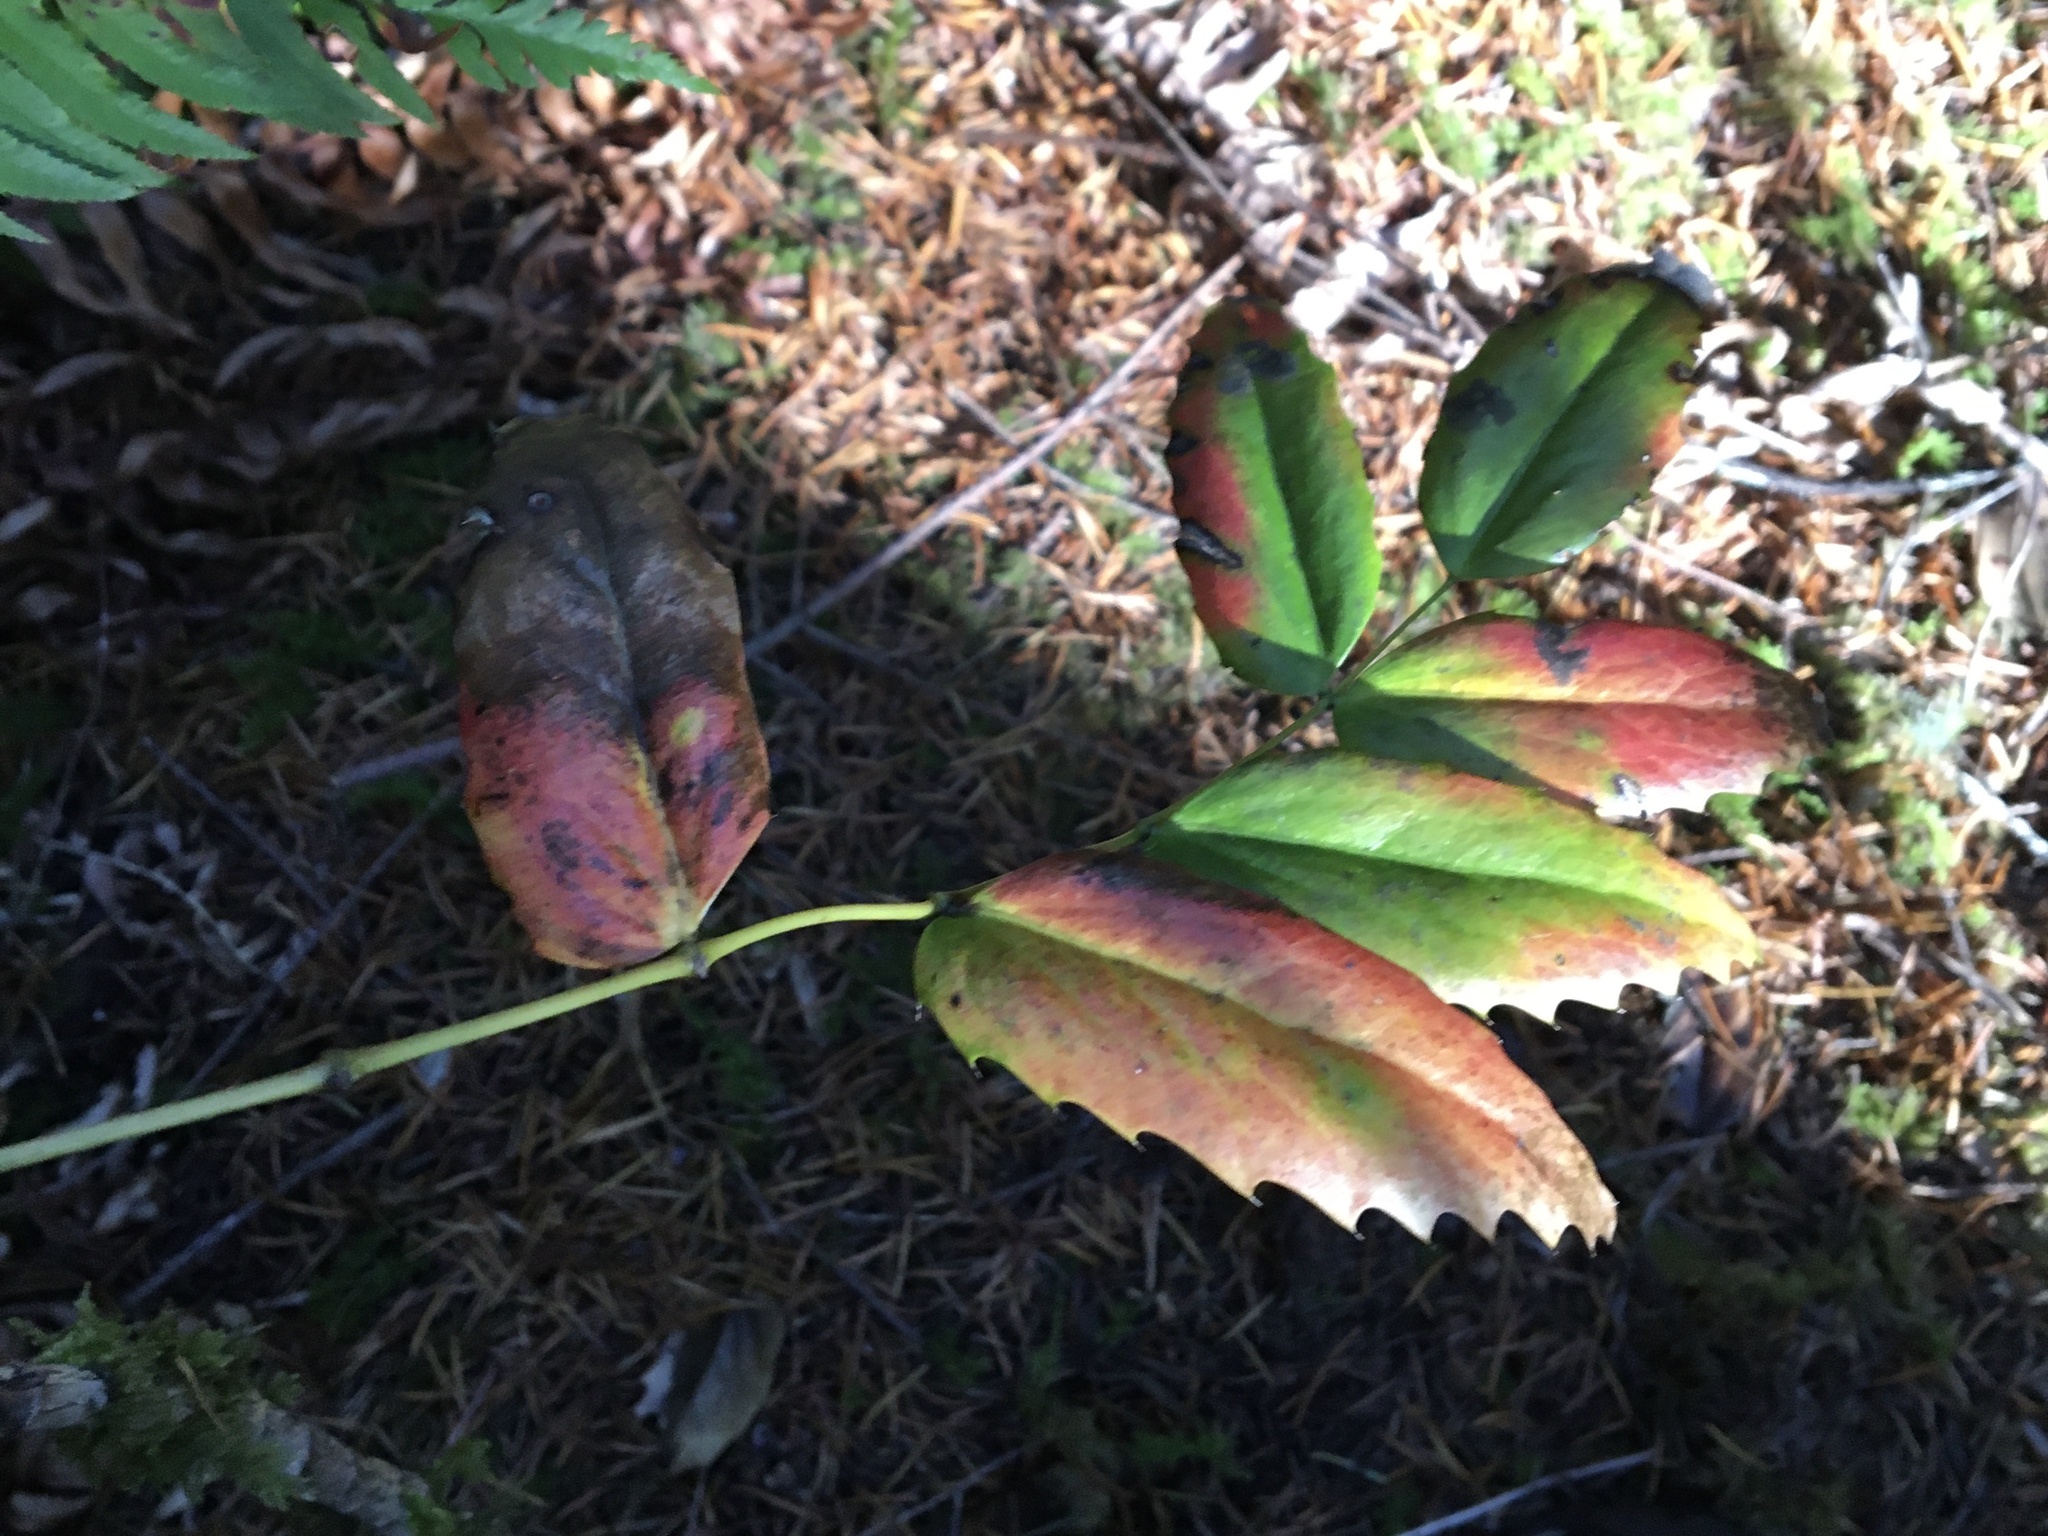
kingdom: Plantae
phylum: Tracheophyta
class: Magnoliopsida
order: Ranunculales
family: Berberidaceae
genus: Mahonia
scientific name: Mahonia nervosa
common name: Cascade oregon-grape
